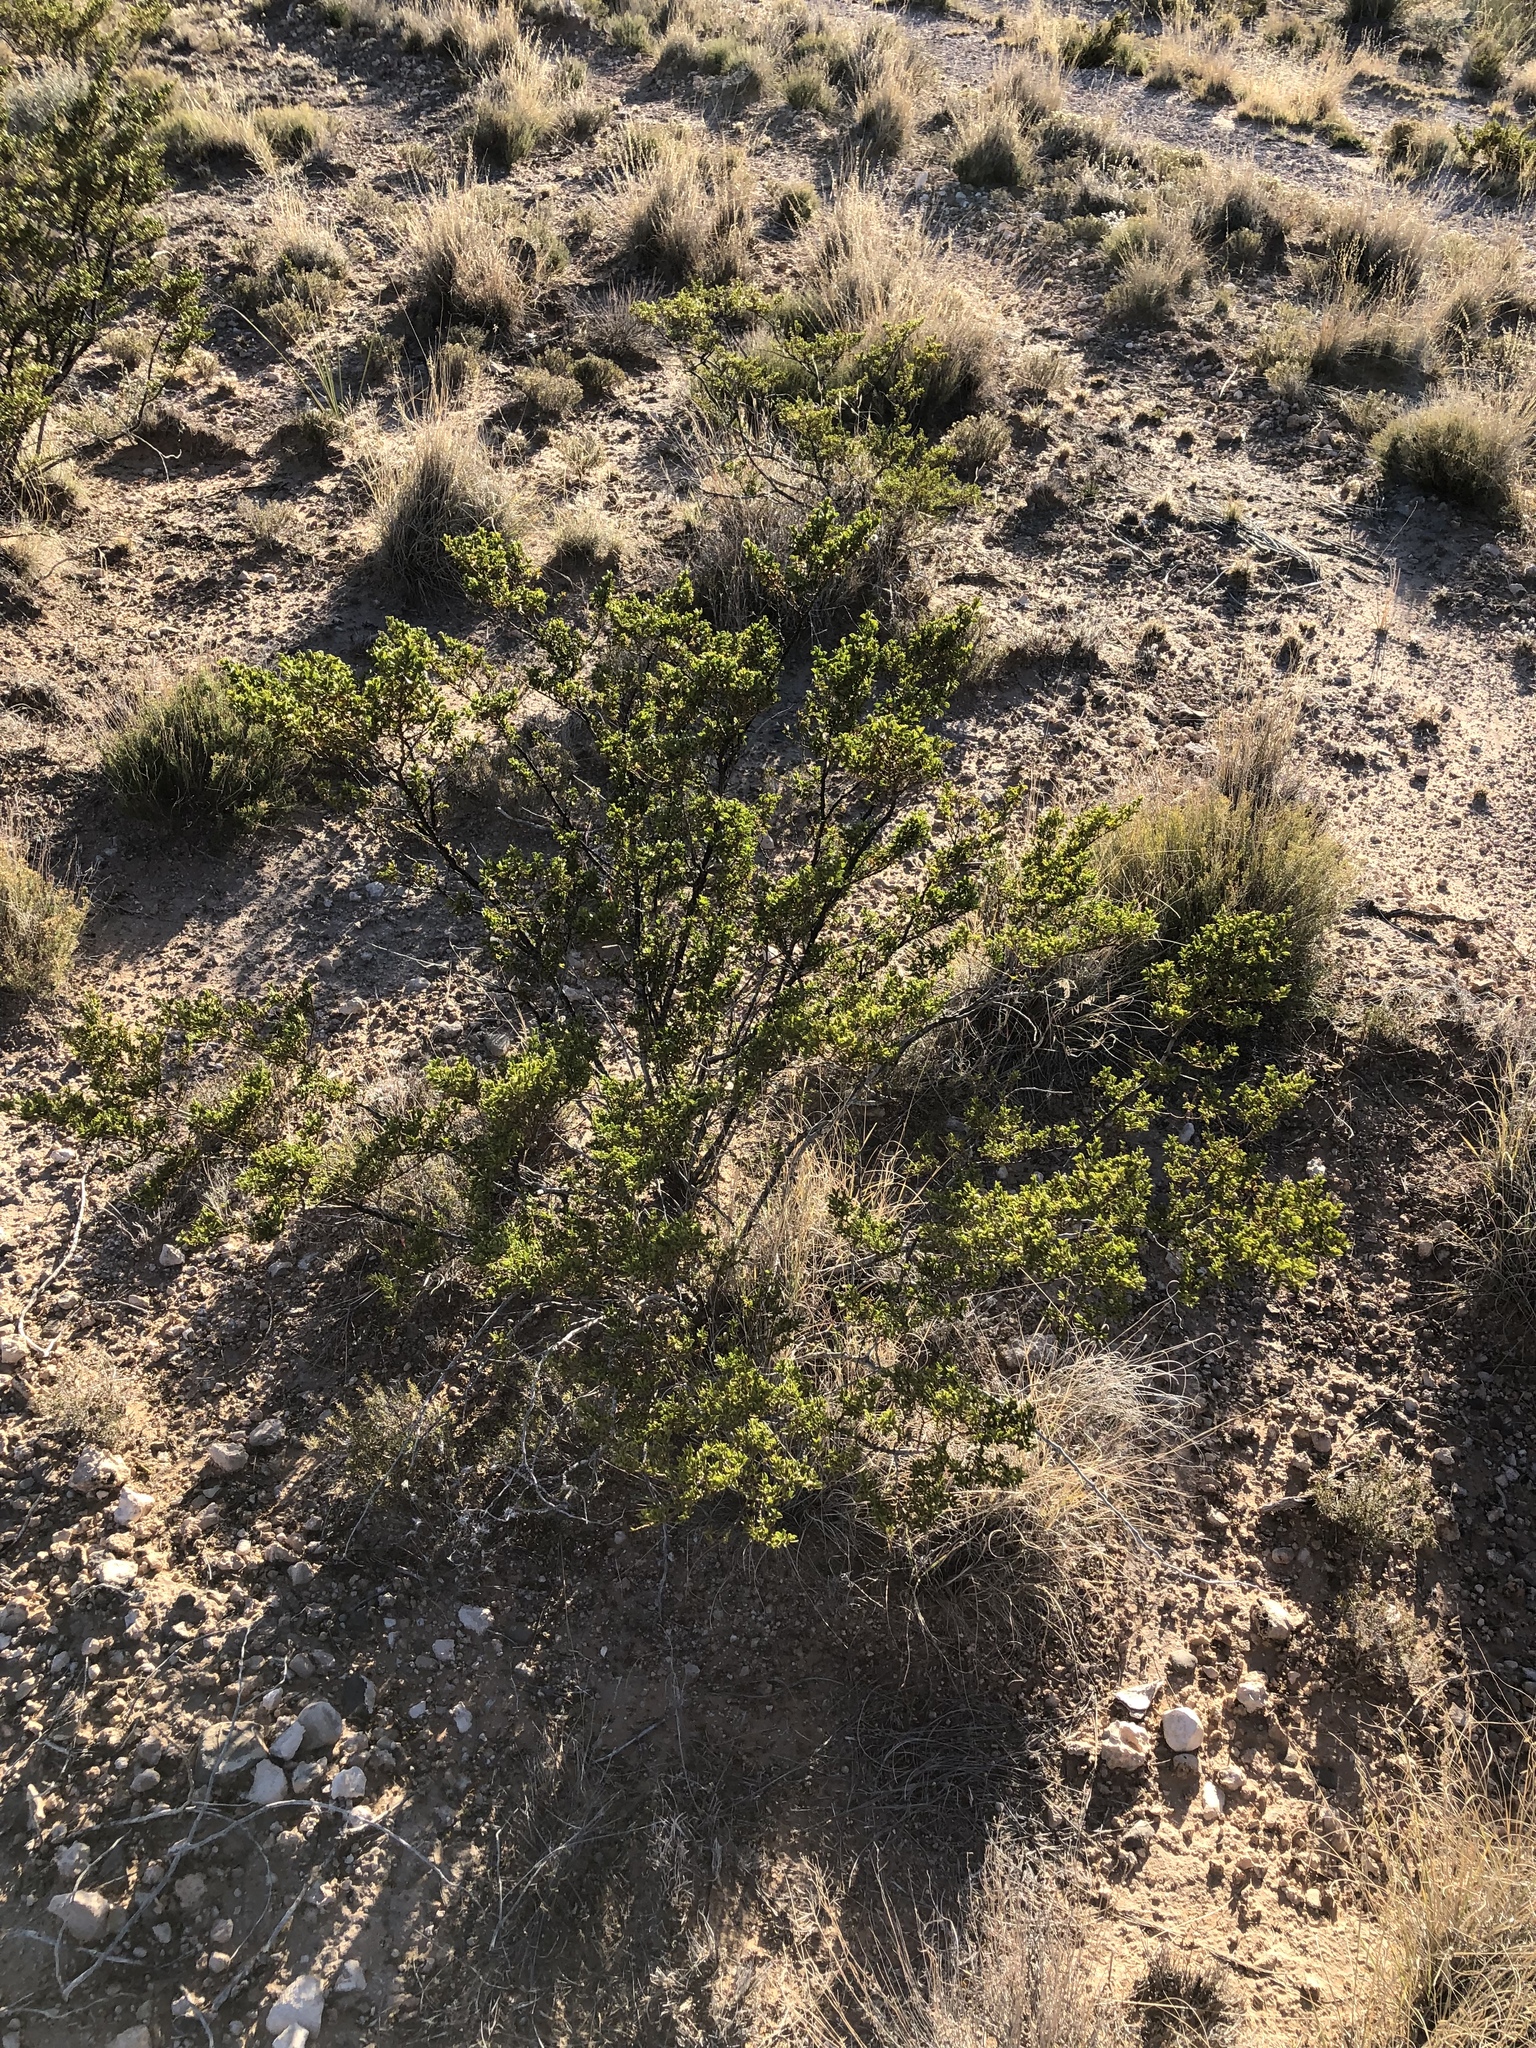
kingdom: Plantae
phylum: Tracheophyta
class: Magnoliopsida
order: Zygophyllales
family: Zygophyllaceae
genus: Larrea
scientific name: Larrea tridentata
